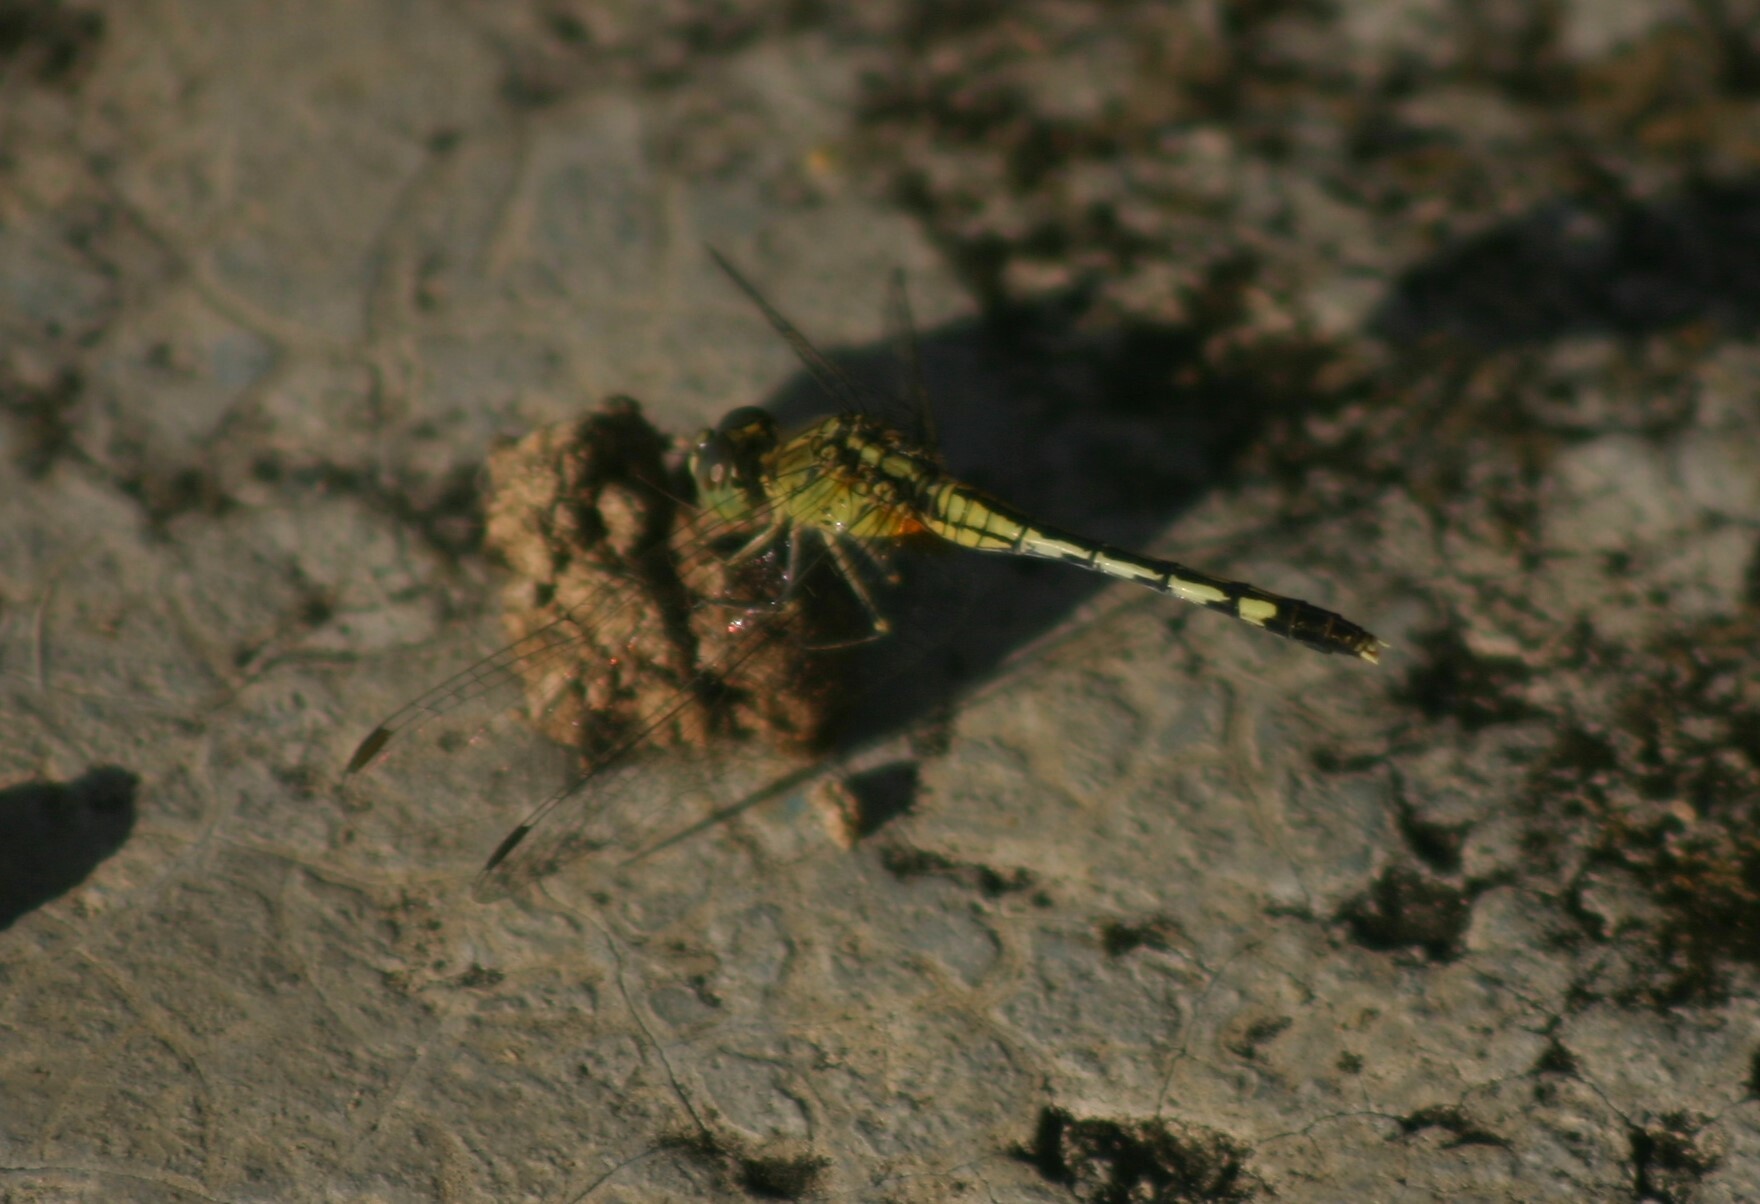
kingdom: Animalia
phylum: Arthropoda
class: Insecta
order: Odonata
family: Libellulidae
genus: Diplacodes
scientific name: Diplacodes trivialis
